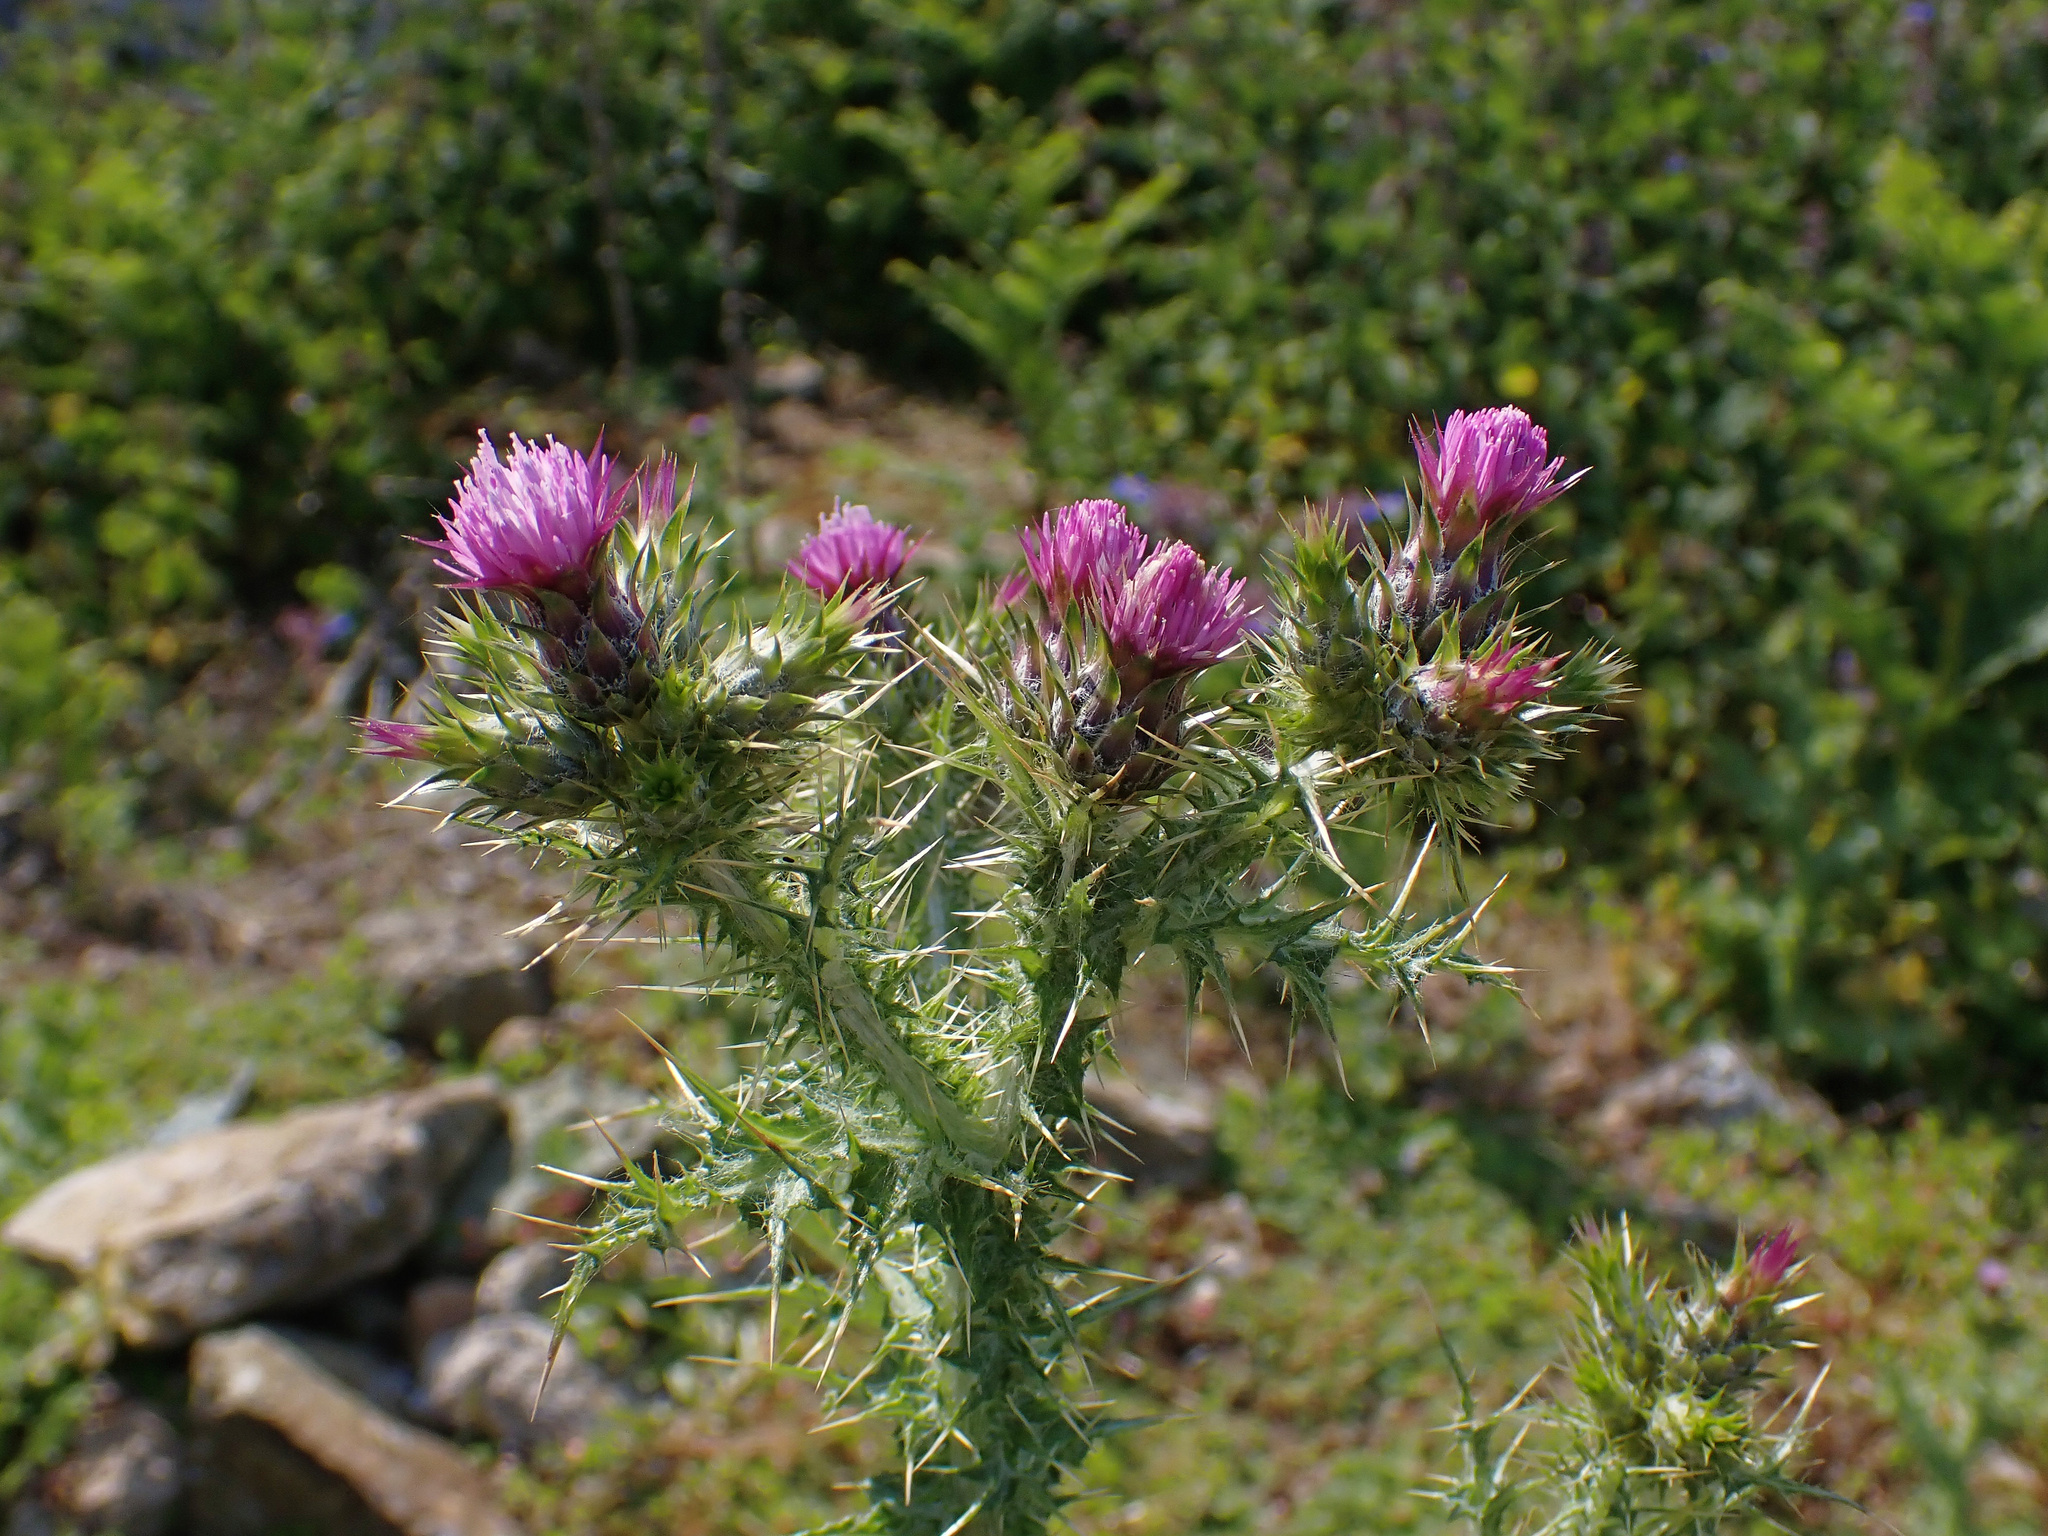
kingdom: Plantae
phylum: Tracheophyta
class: Magnoliopsida
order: Asterales
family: Asteraceae
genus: Carduus
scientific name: Carduus tenuiflorus
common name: Slender thistle
